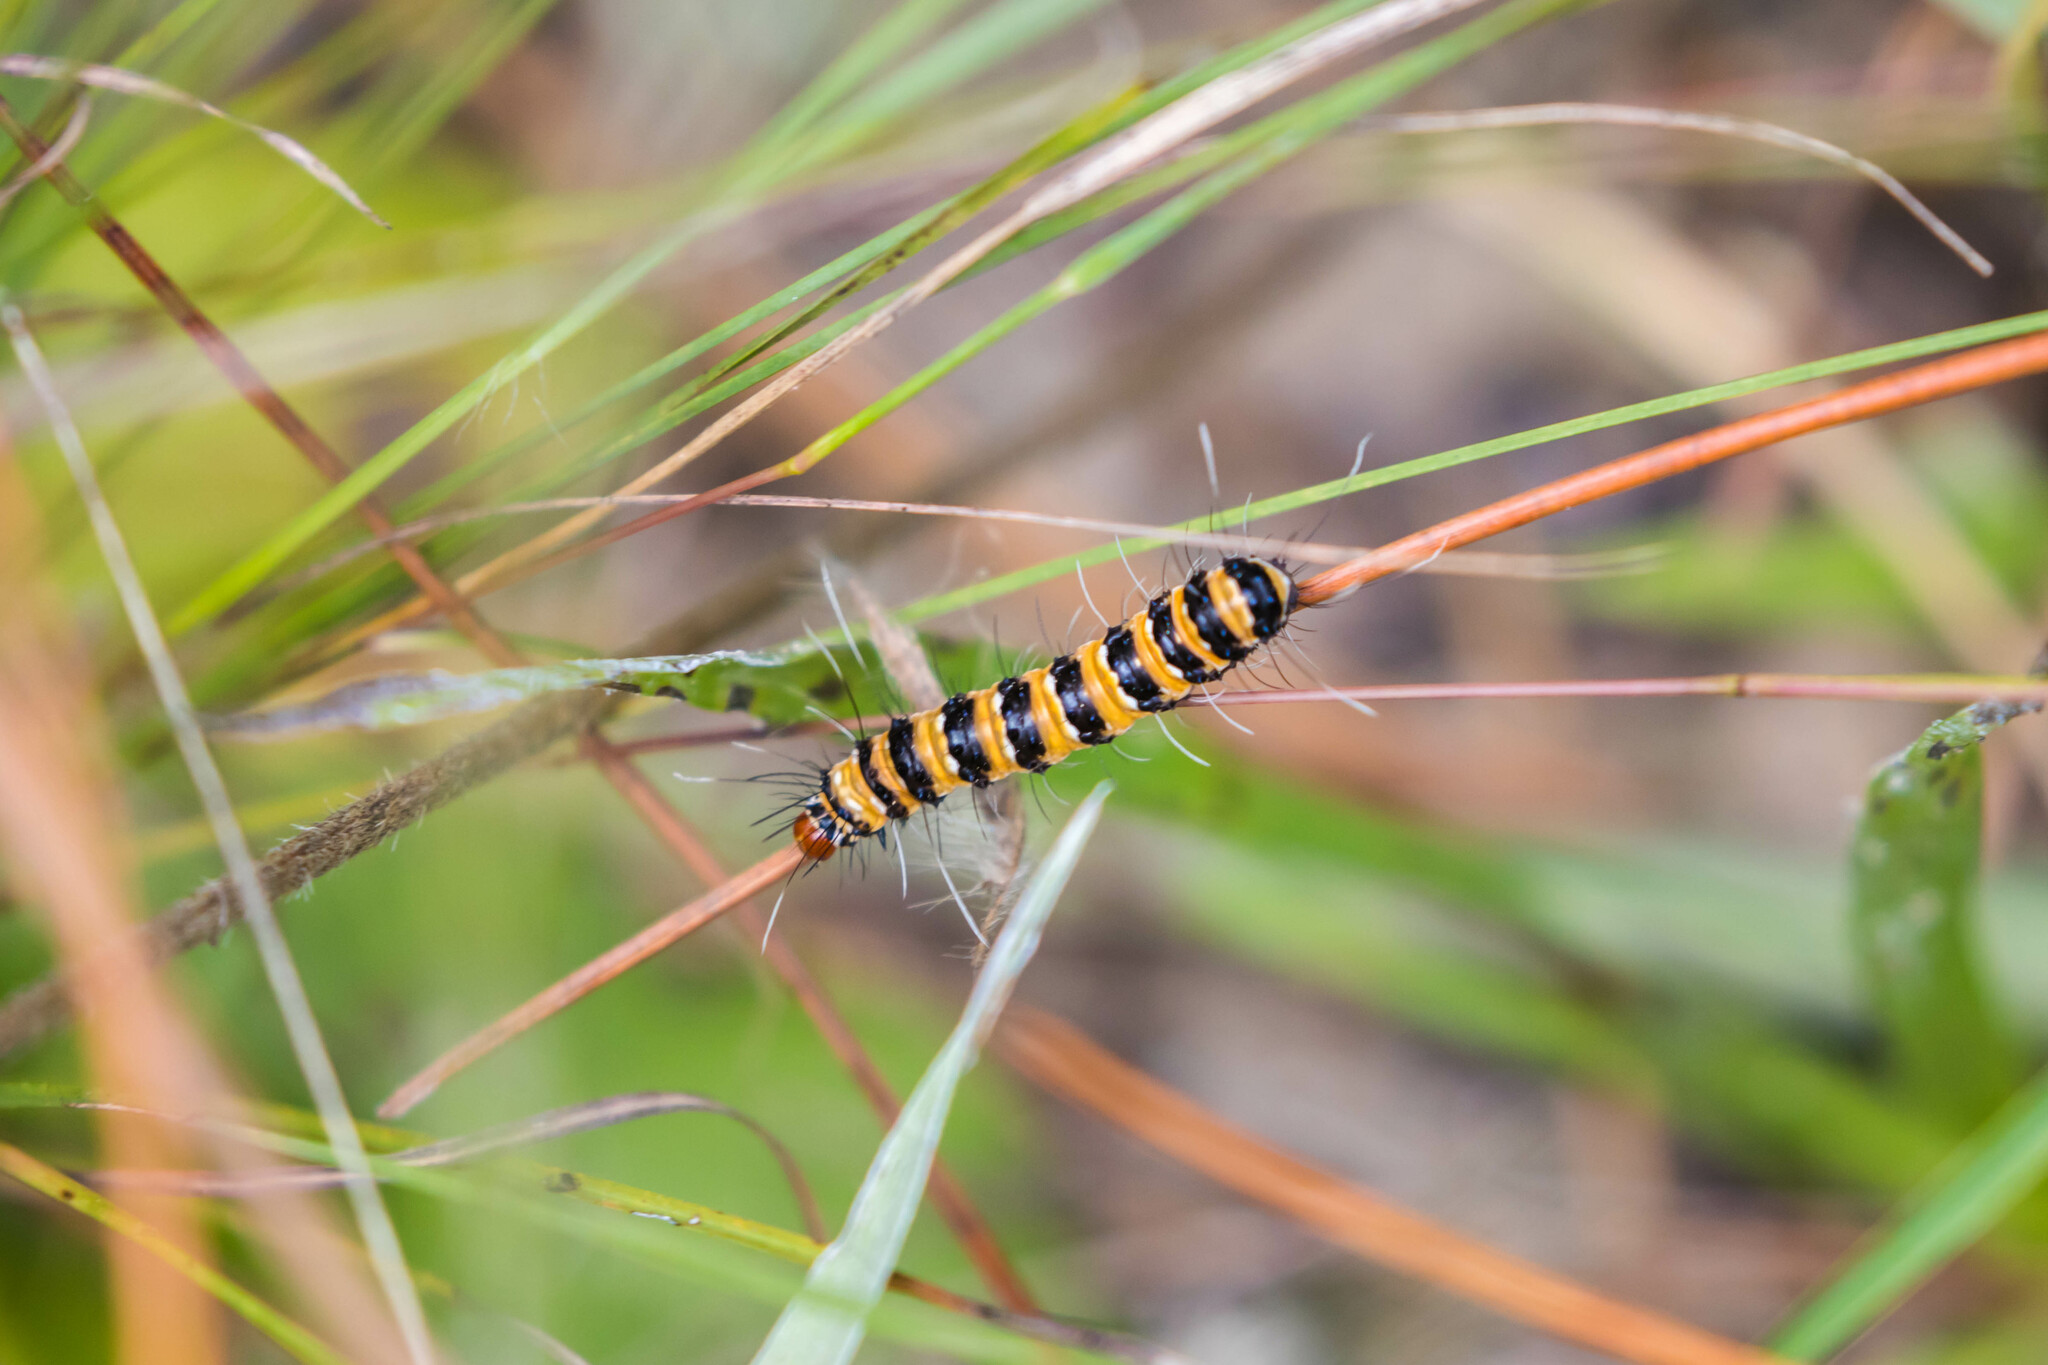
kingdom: Animalia
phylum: Arthropoda
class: Insecta
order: Lepidoptera
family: Erebidae
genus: Utetheisa
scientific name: Utetheisa ornatrix
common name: Beautiful utetheisa
